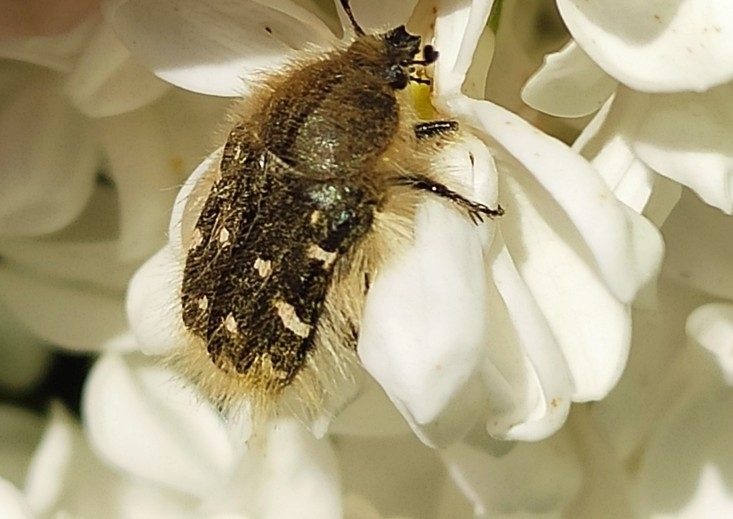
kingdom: Animalia
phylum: Arthropoda
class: Insecta
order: Coleoptera
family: Scarabaeidae
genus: Tropinota
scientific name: Tropinota hirta
